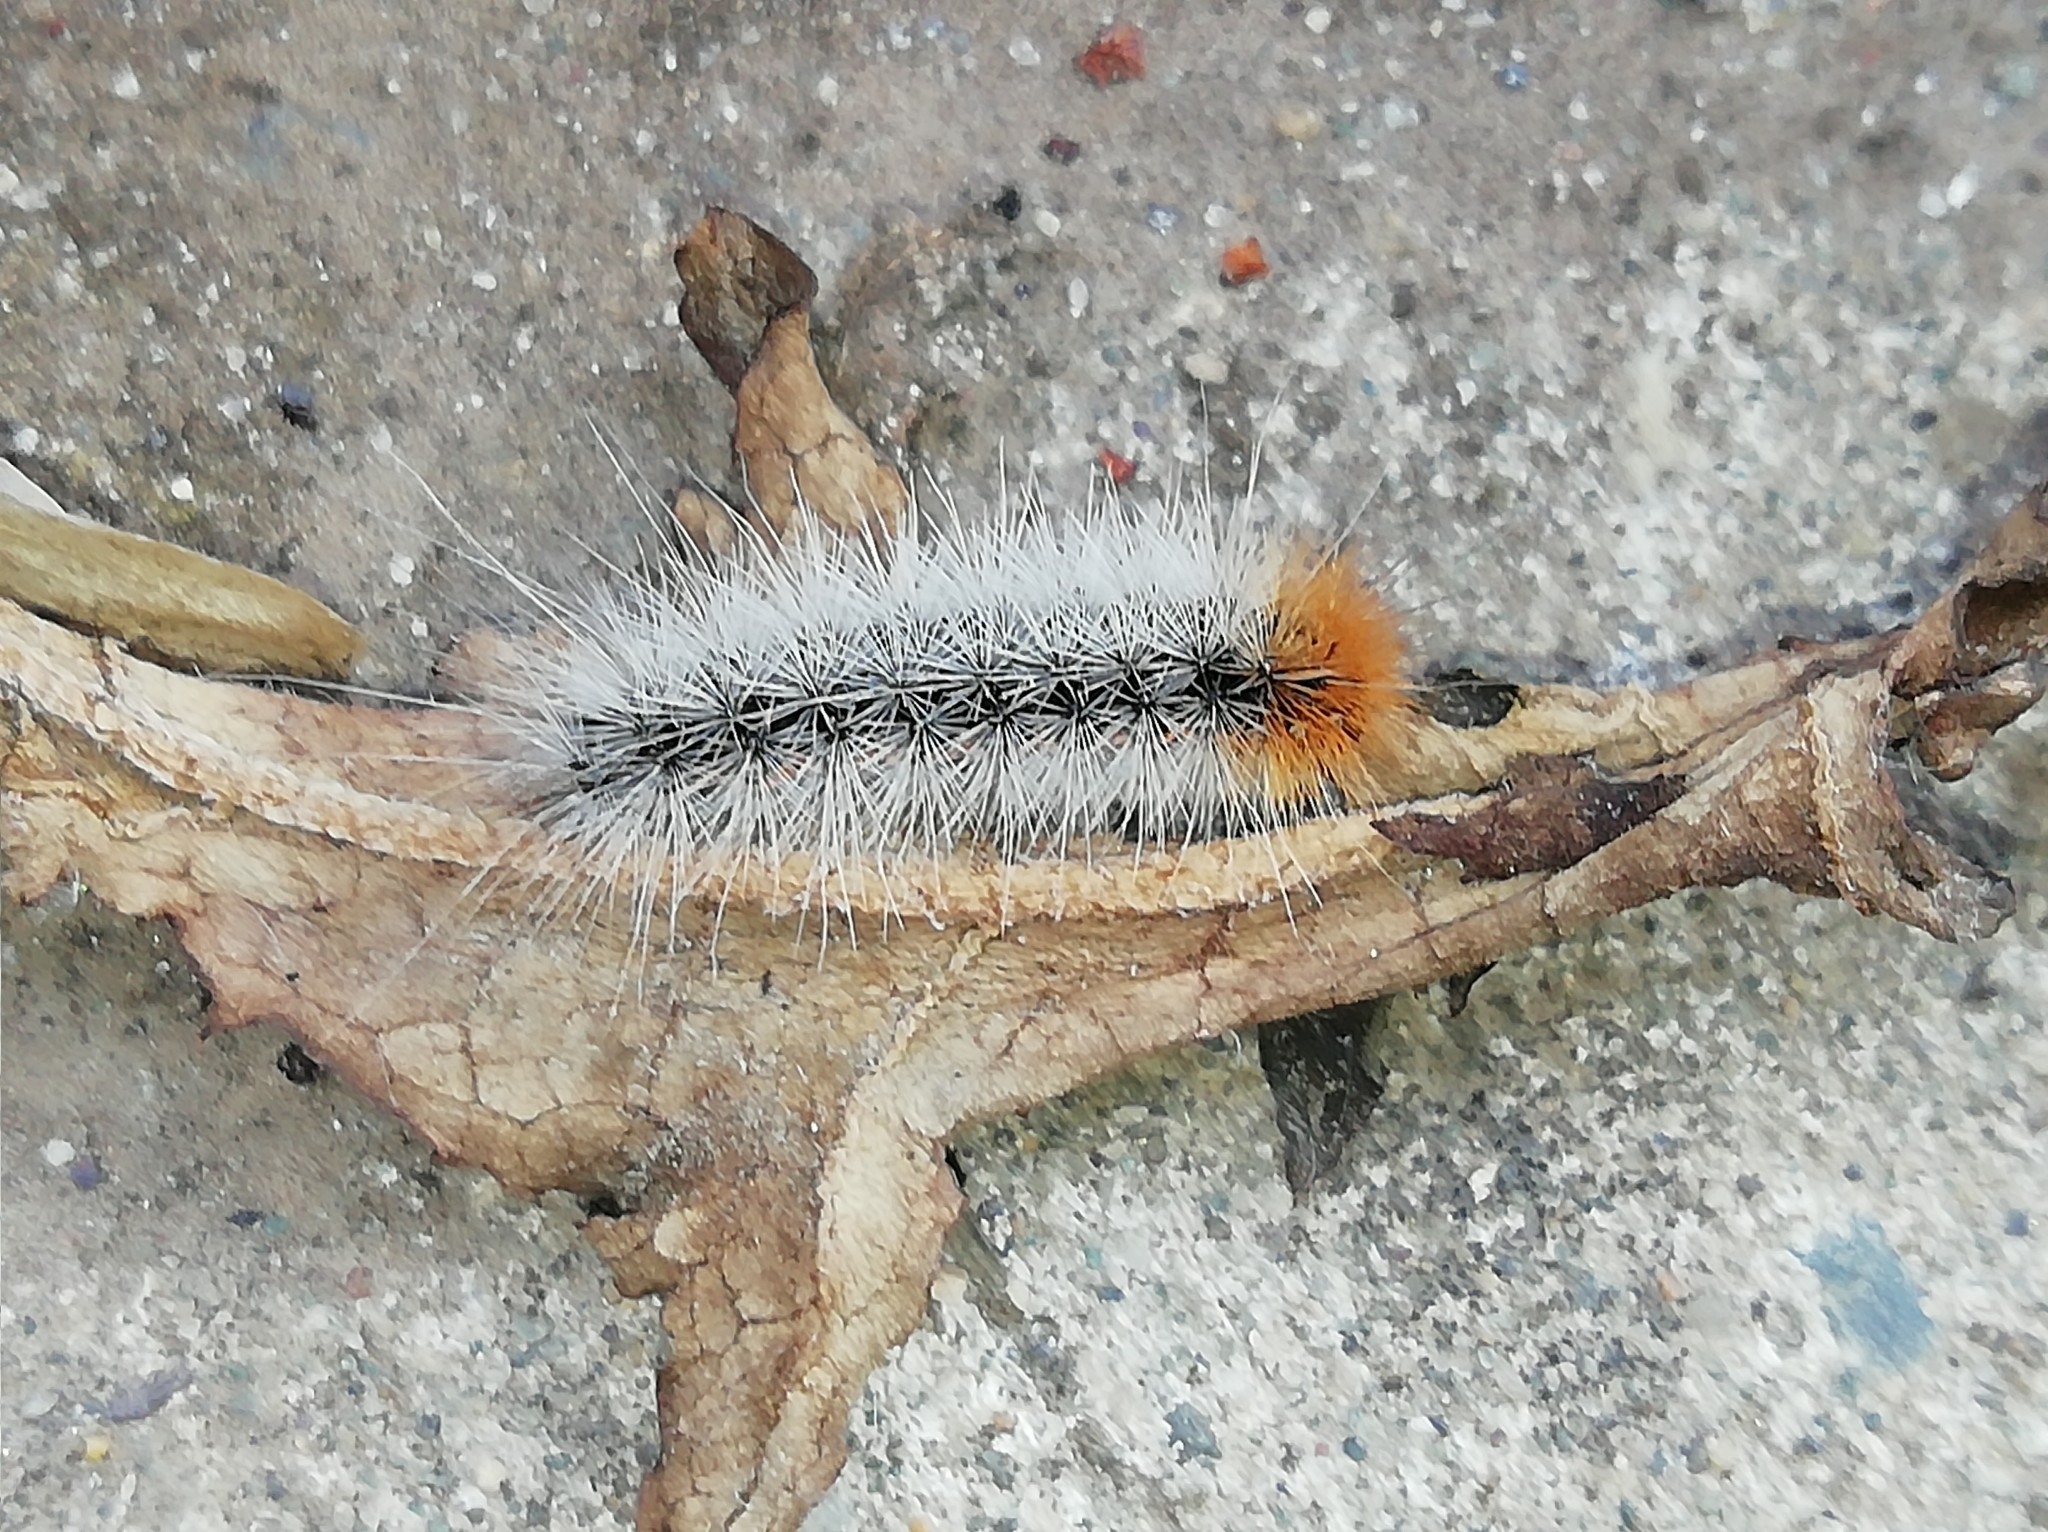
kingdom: Animalia
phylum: Arthropoda
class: Insecta
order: Lepidoptera
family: Erebidae
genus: Arctia
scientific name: Arctia caja
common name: Garden tiger
